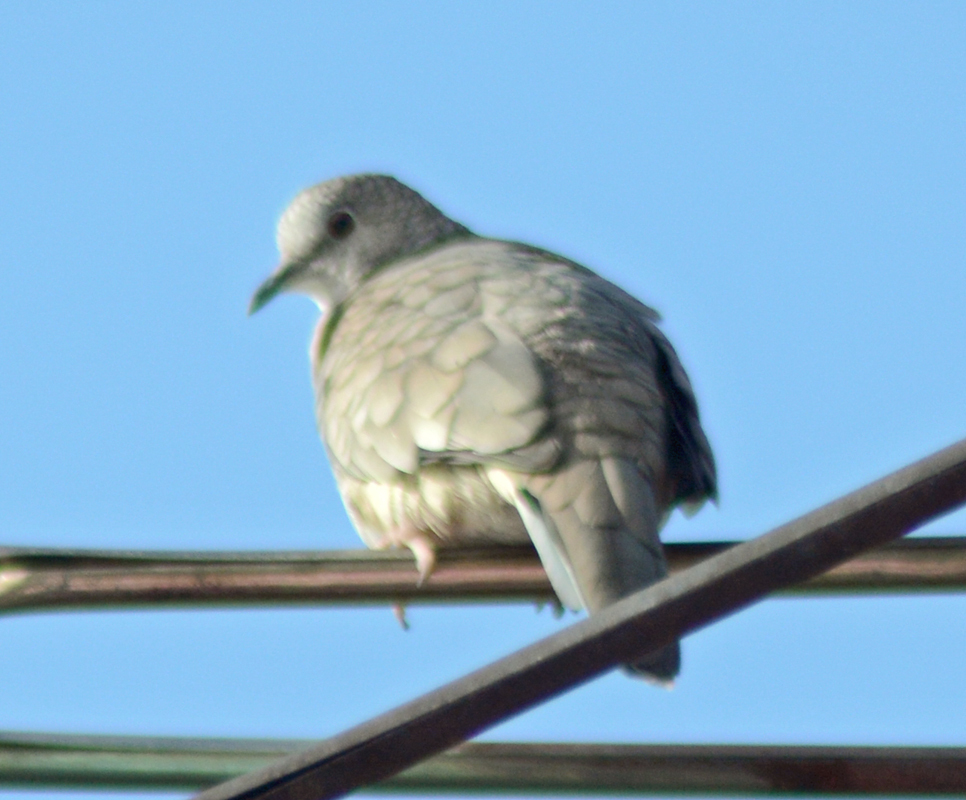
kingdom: Animalia
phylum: Chordata
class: Aves
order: Columbiformes
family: Columbidae
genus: Columbina
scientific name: Columbina inca
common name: Inca dove
